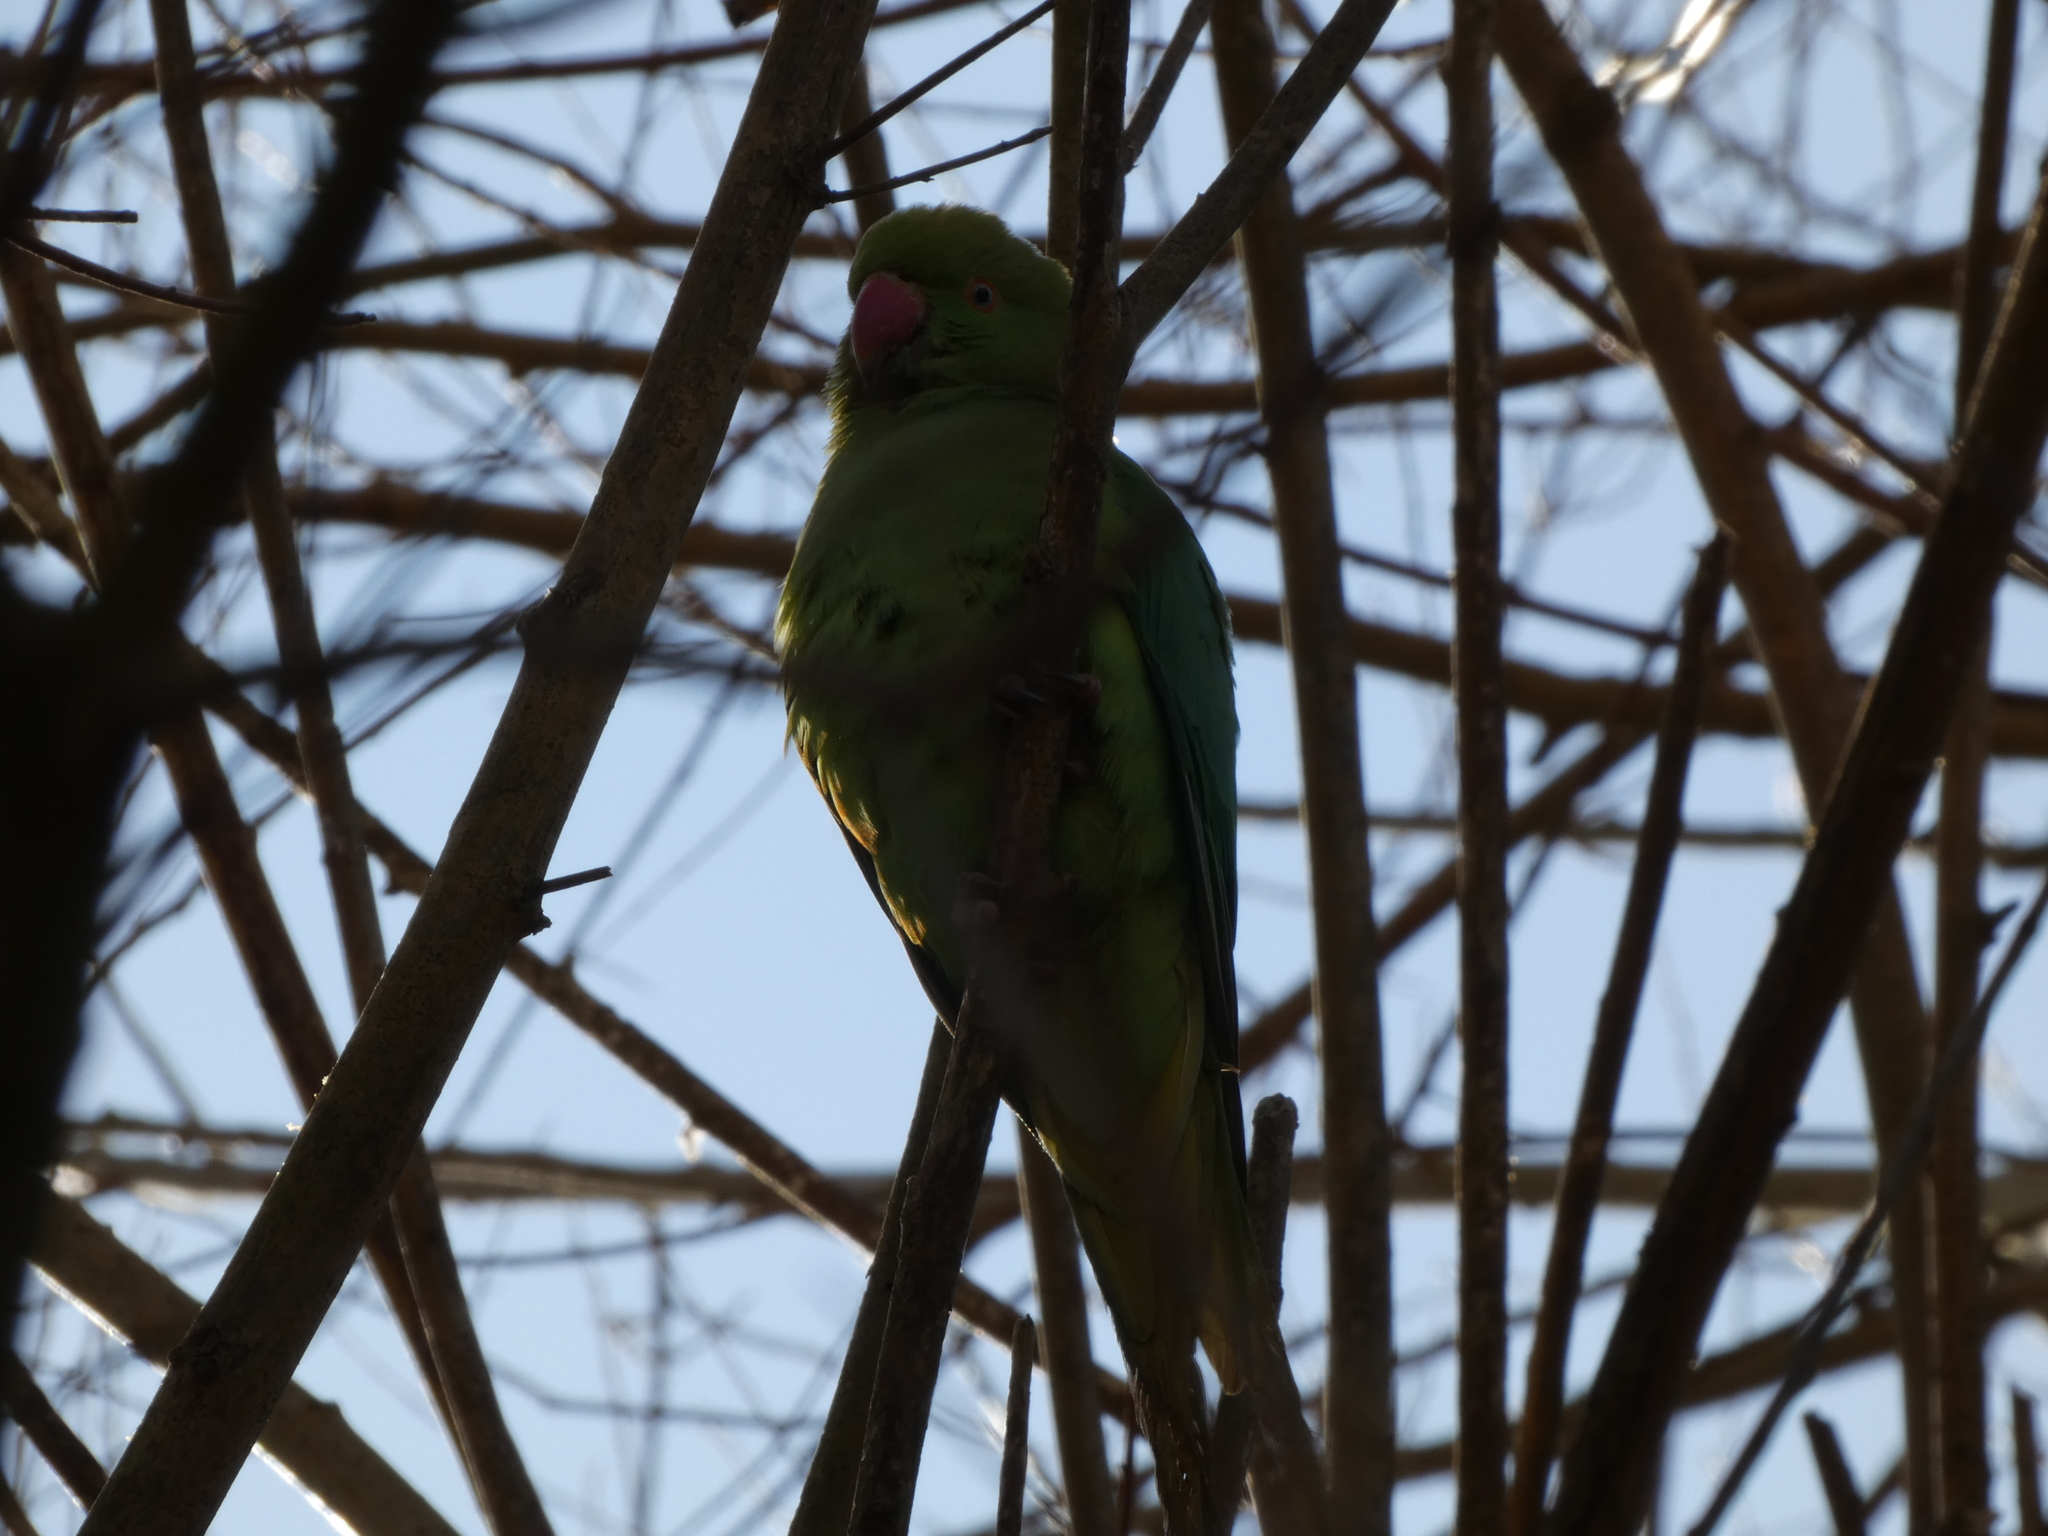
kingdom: Animalia
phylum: Chordata
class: Aves
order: Psittaciformes
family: Psittacidae
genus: Psittacula
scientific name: Psittacula krameri
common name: Rose-ringed parakeet
